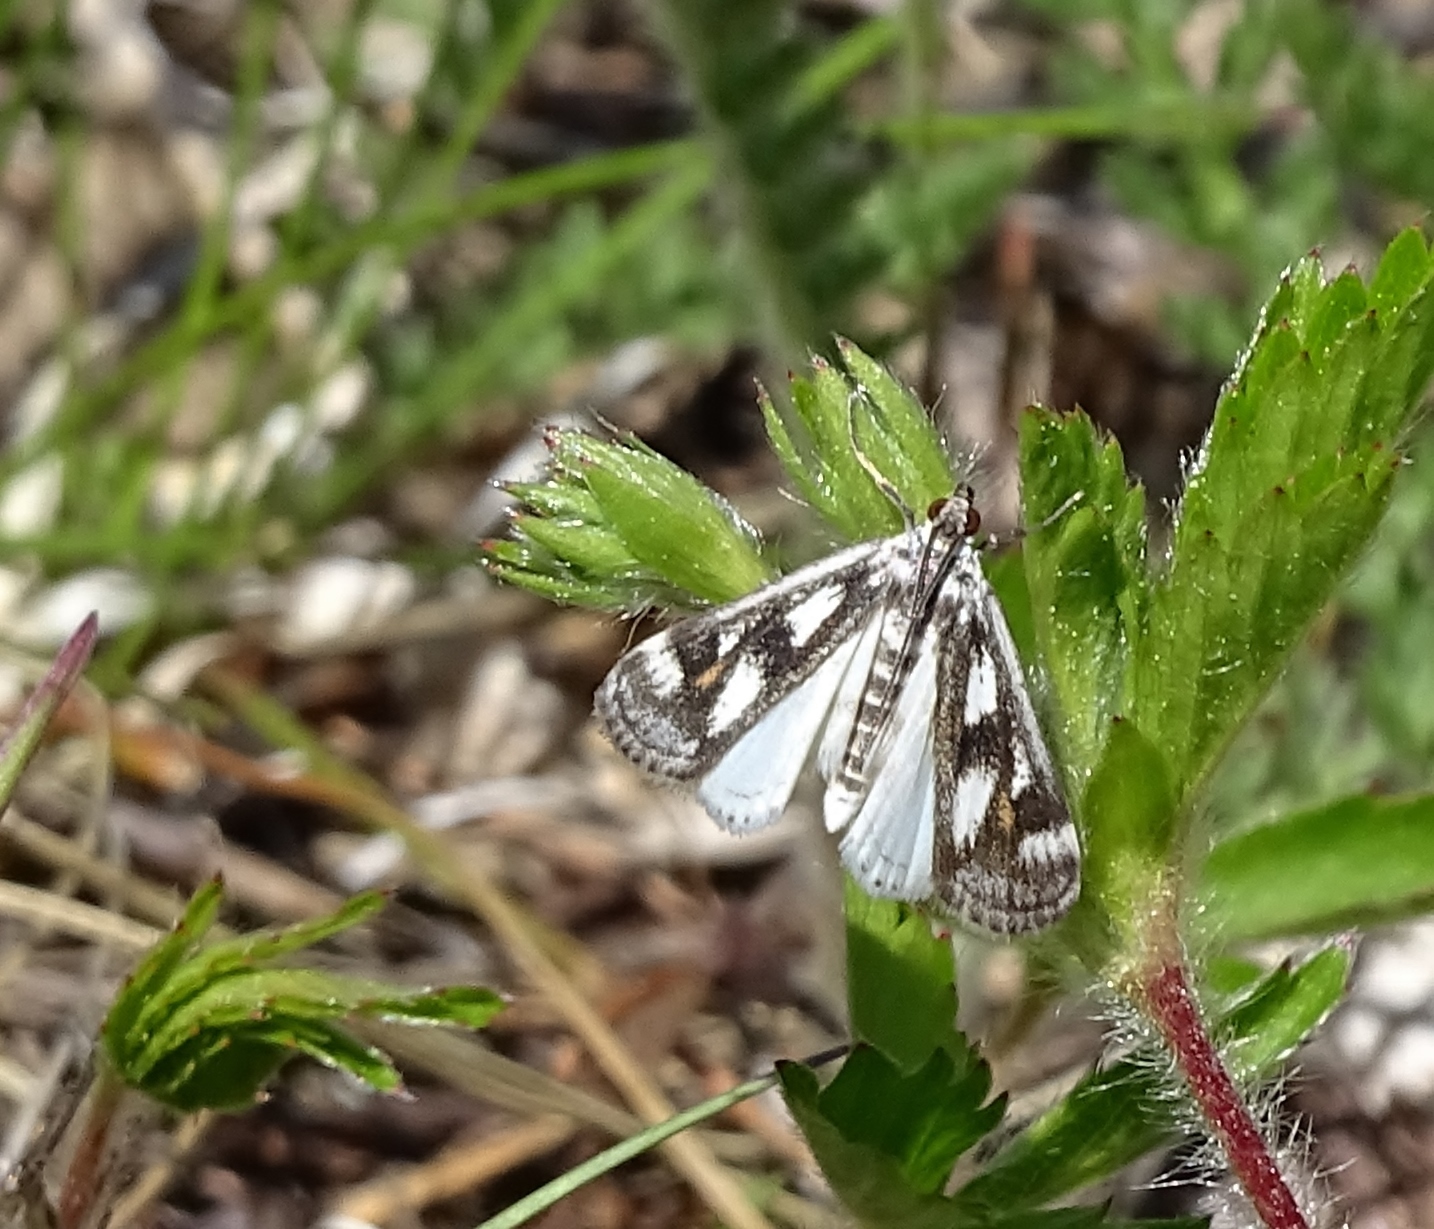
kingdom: Animalia
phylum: Arthropoda
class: Insecta
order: Lepidoptera
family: Crambidae
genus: Parapoynx
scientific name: Parapoynx maculalis
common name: Polymorphic pondweed moth
